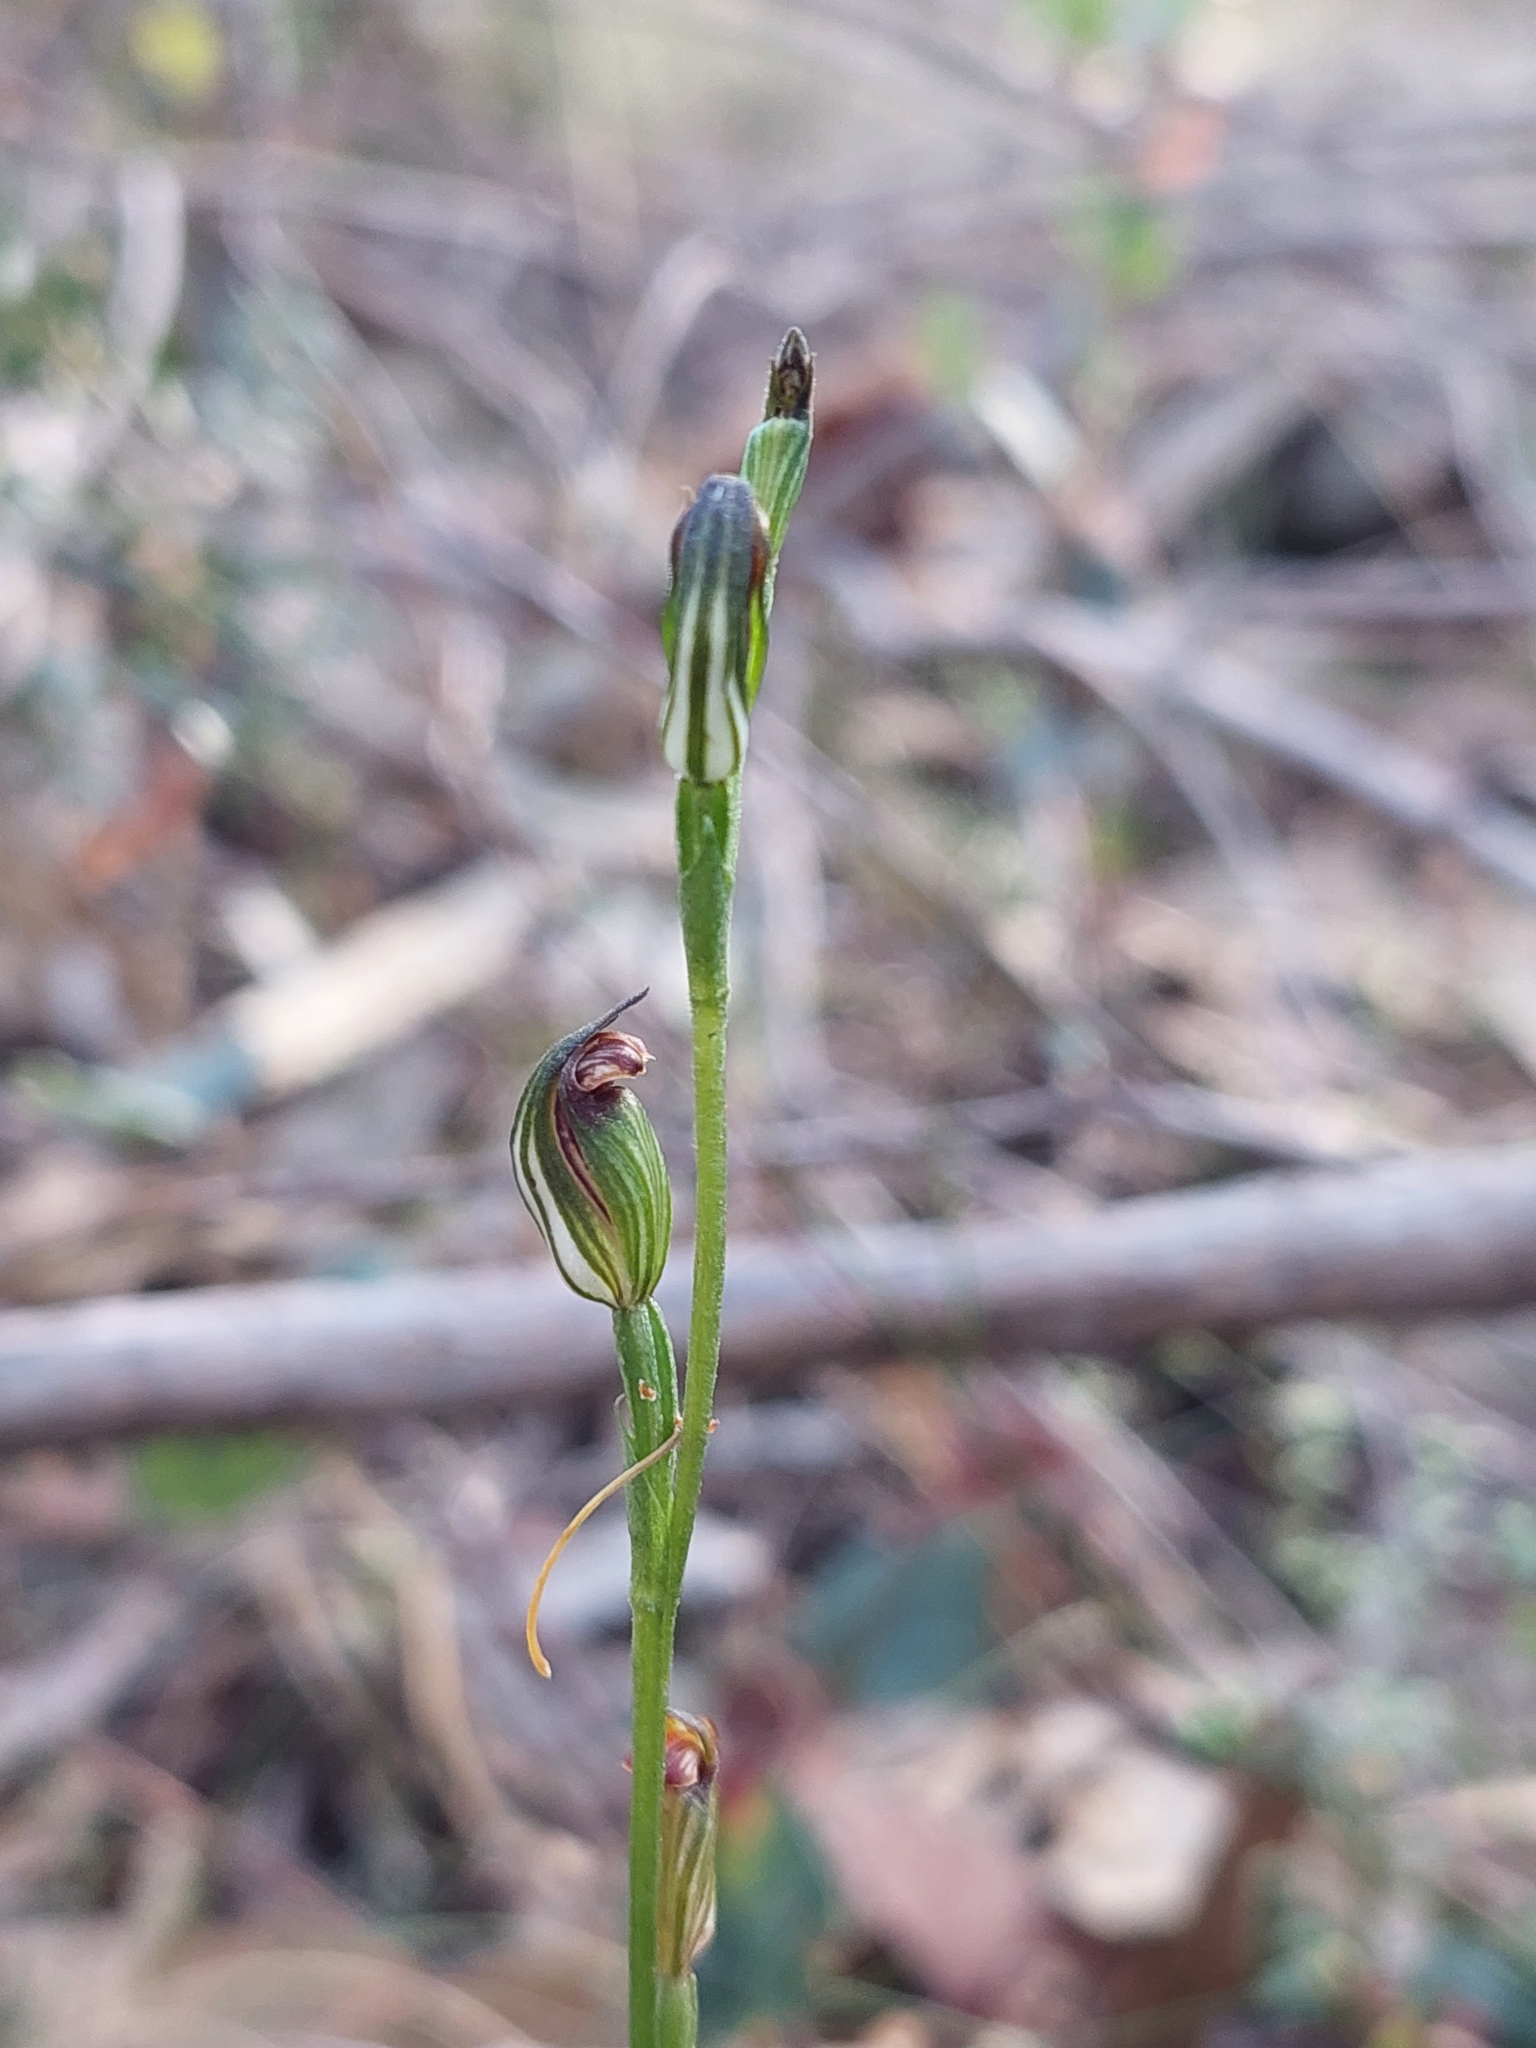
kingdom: Plantae
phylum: Tracheophyta
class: Liliopsida
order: Asparagales
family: Orchidaceae
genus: Pterostylis
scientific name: Pterostylis rubescens
